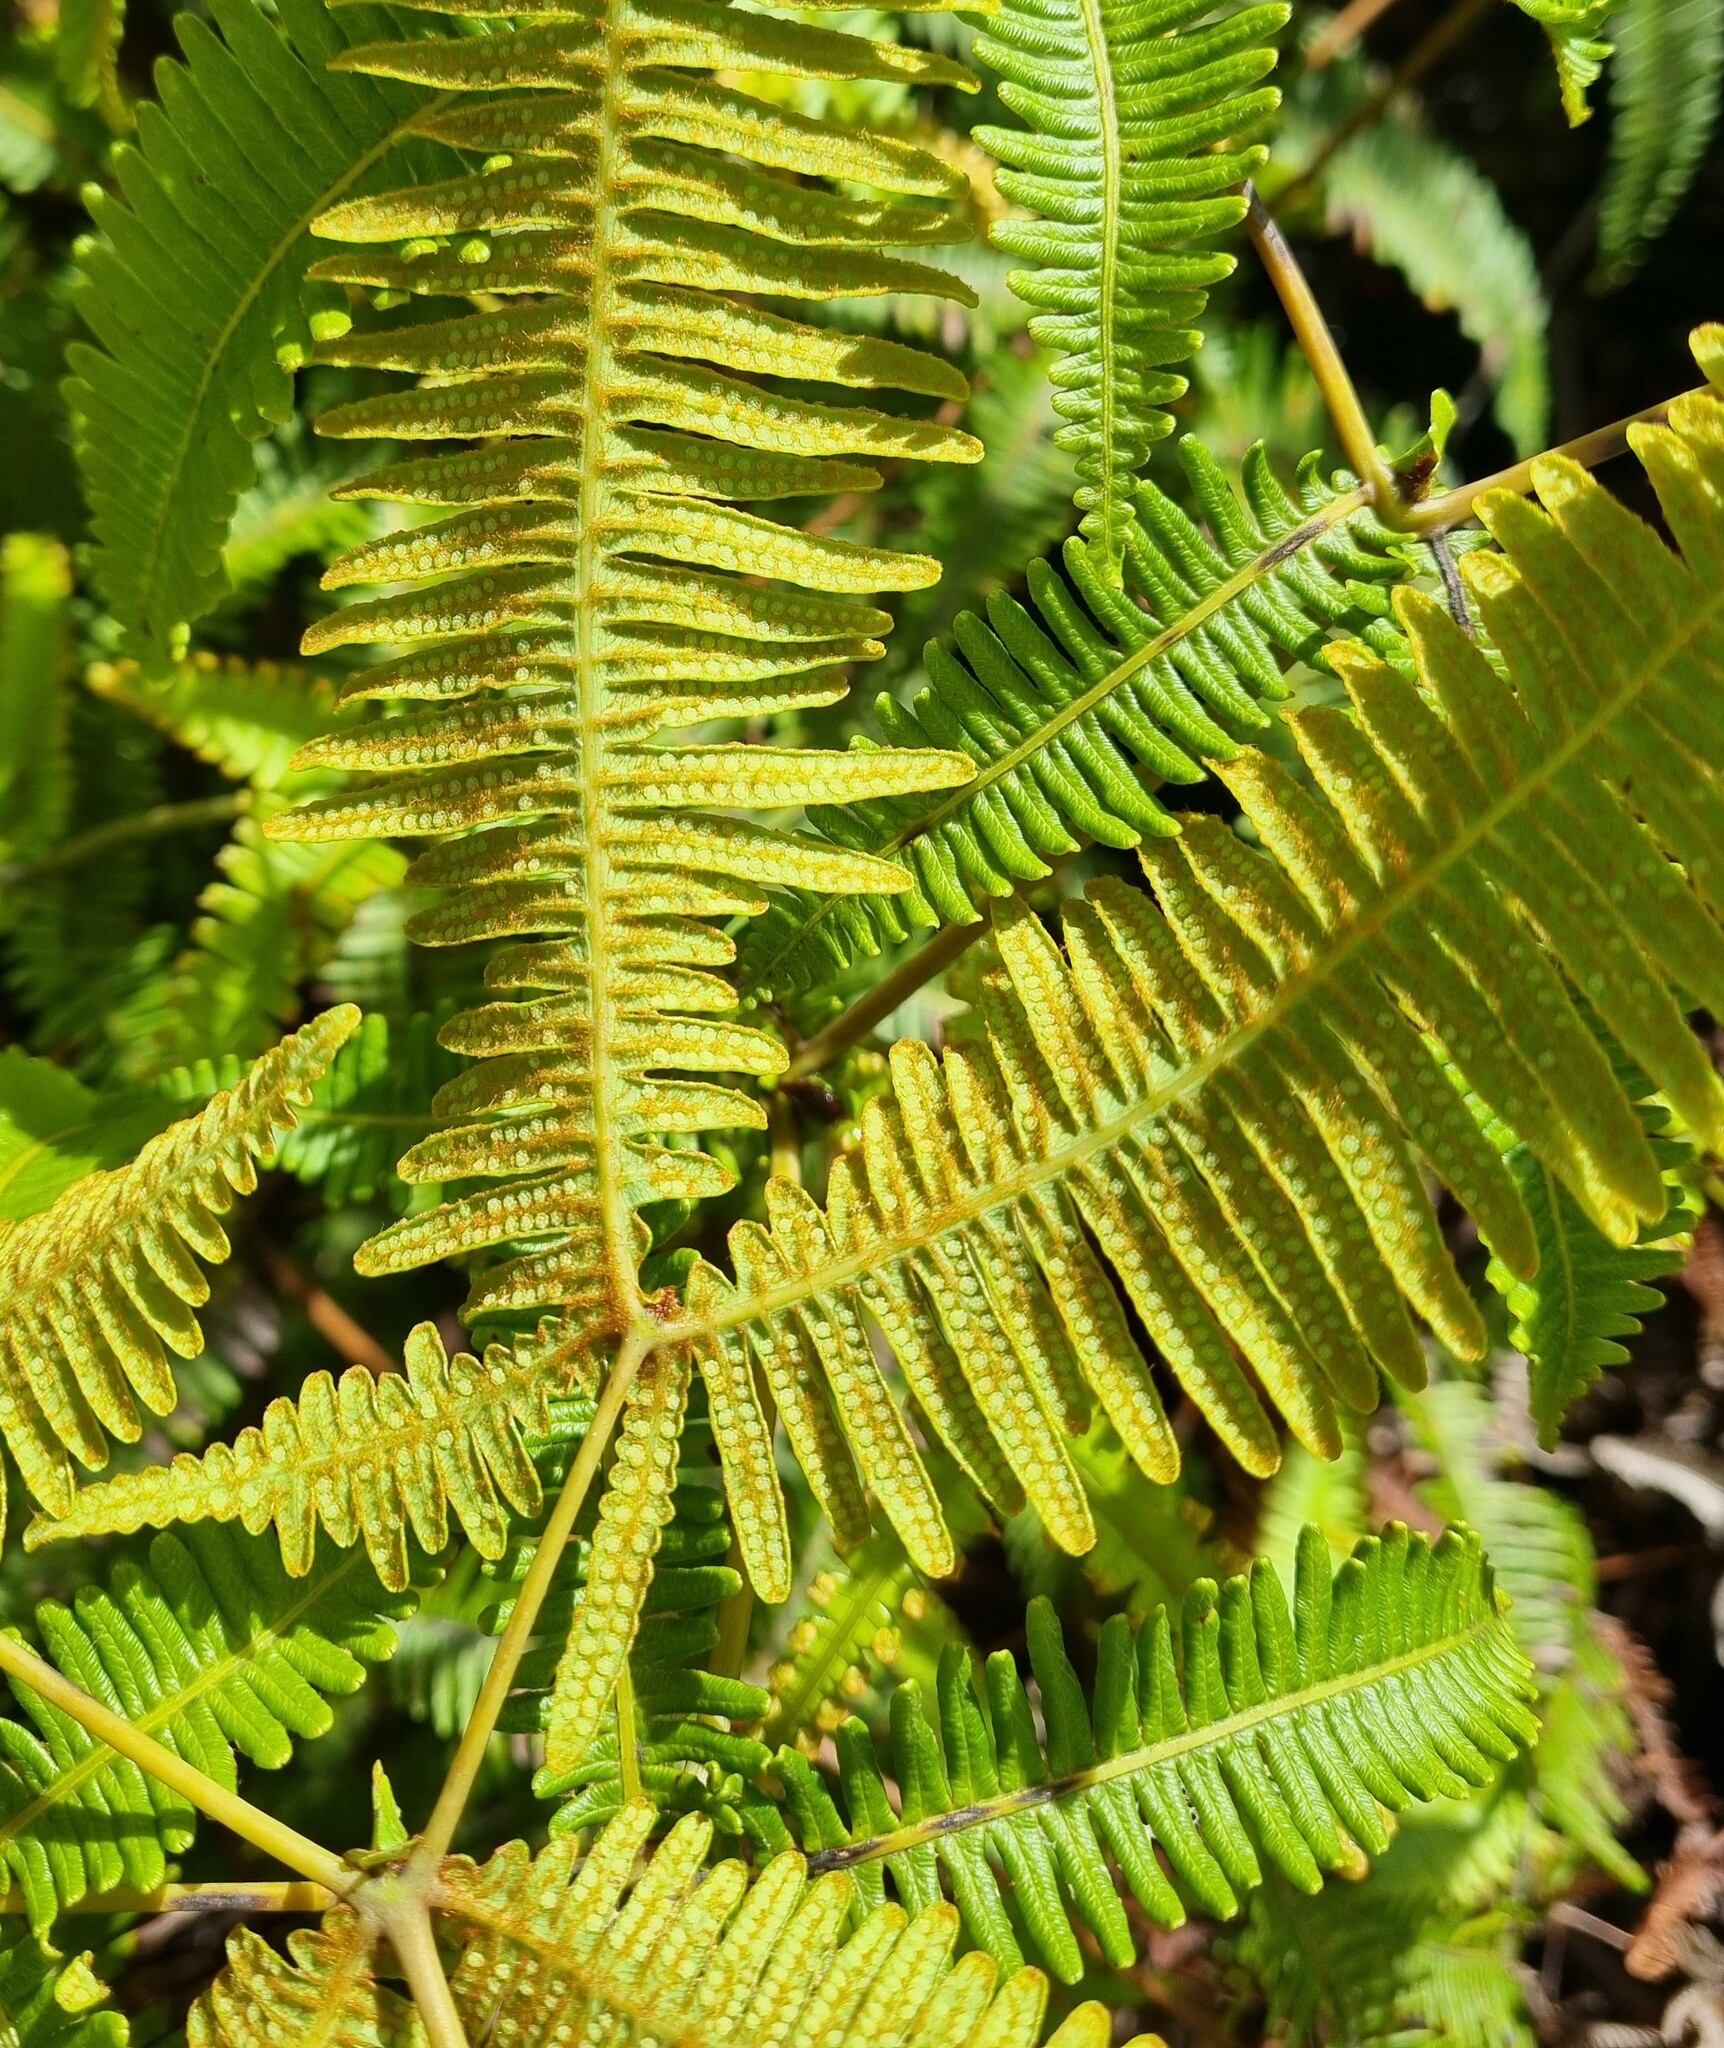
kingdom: Plantae
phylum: Tracheophyta
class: Polypodiopsida
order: Gleicheniales
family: Gleicheniaceae
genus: Dicranopteris
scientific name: Dicranopteris linearis
